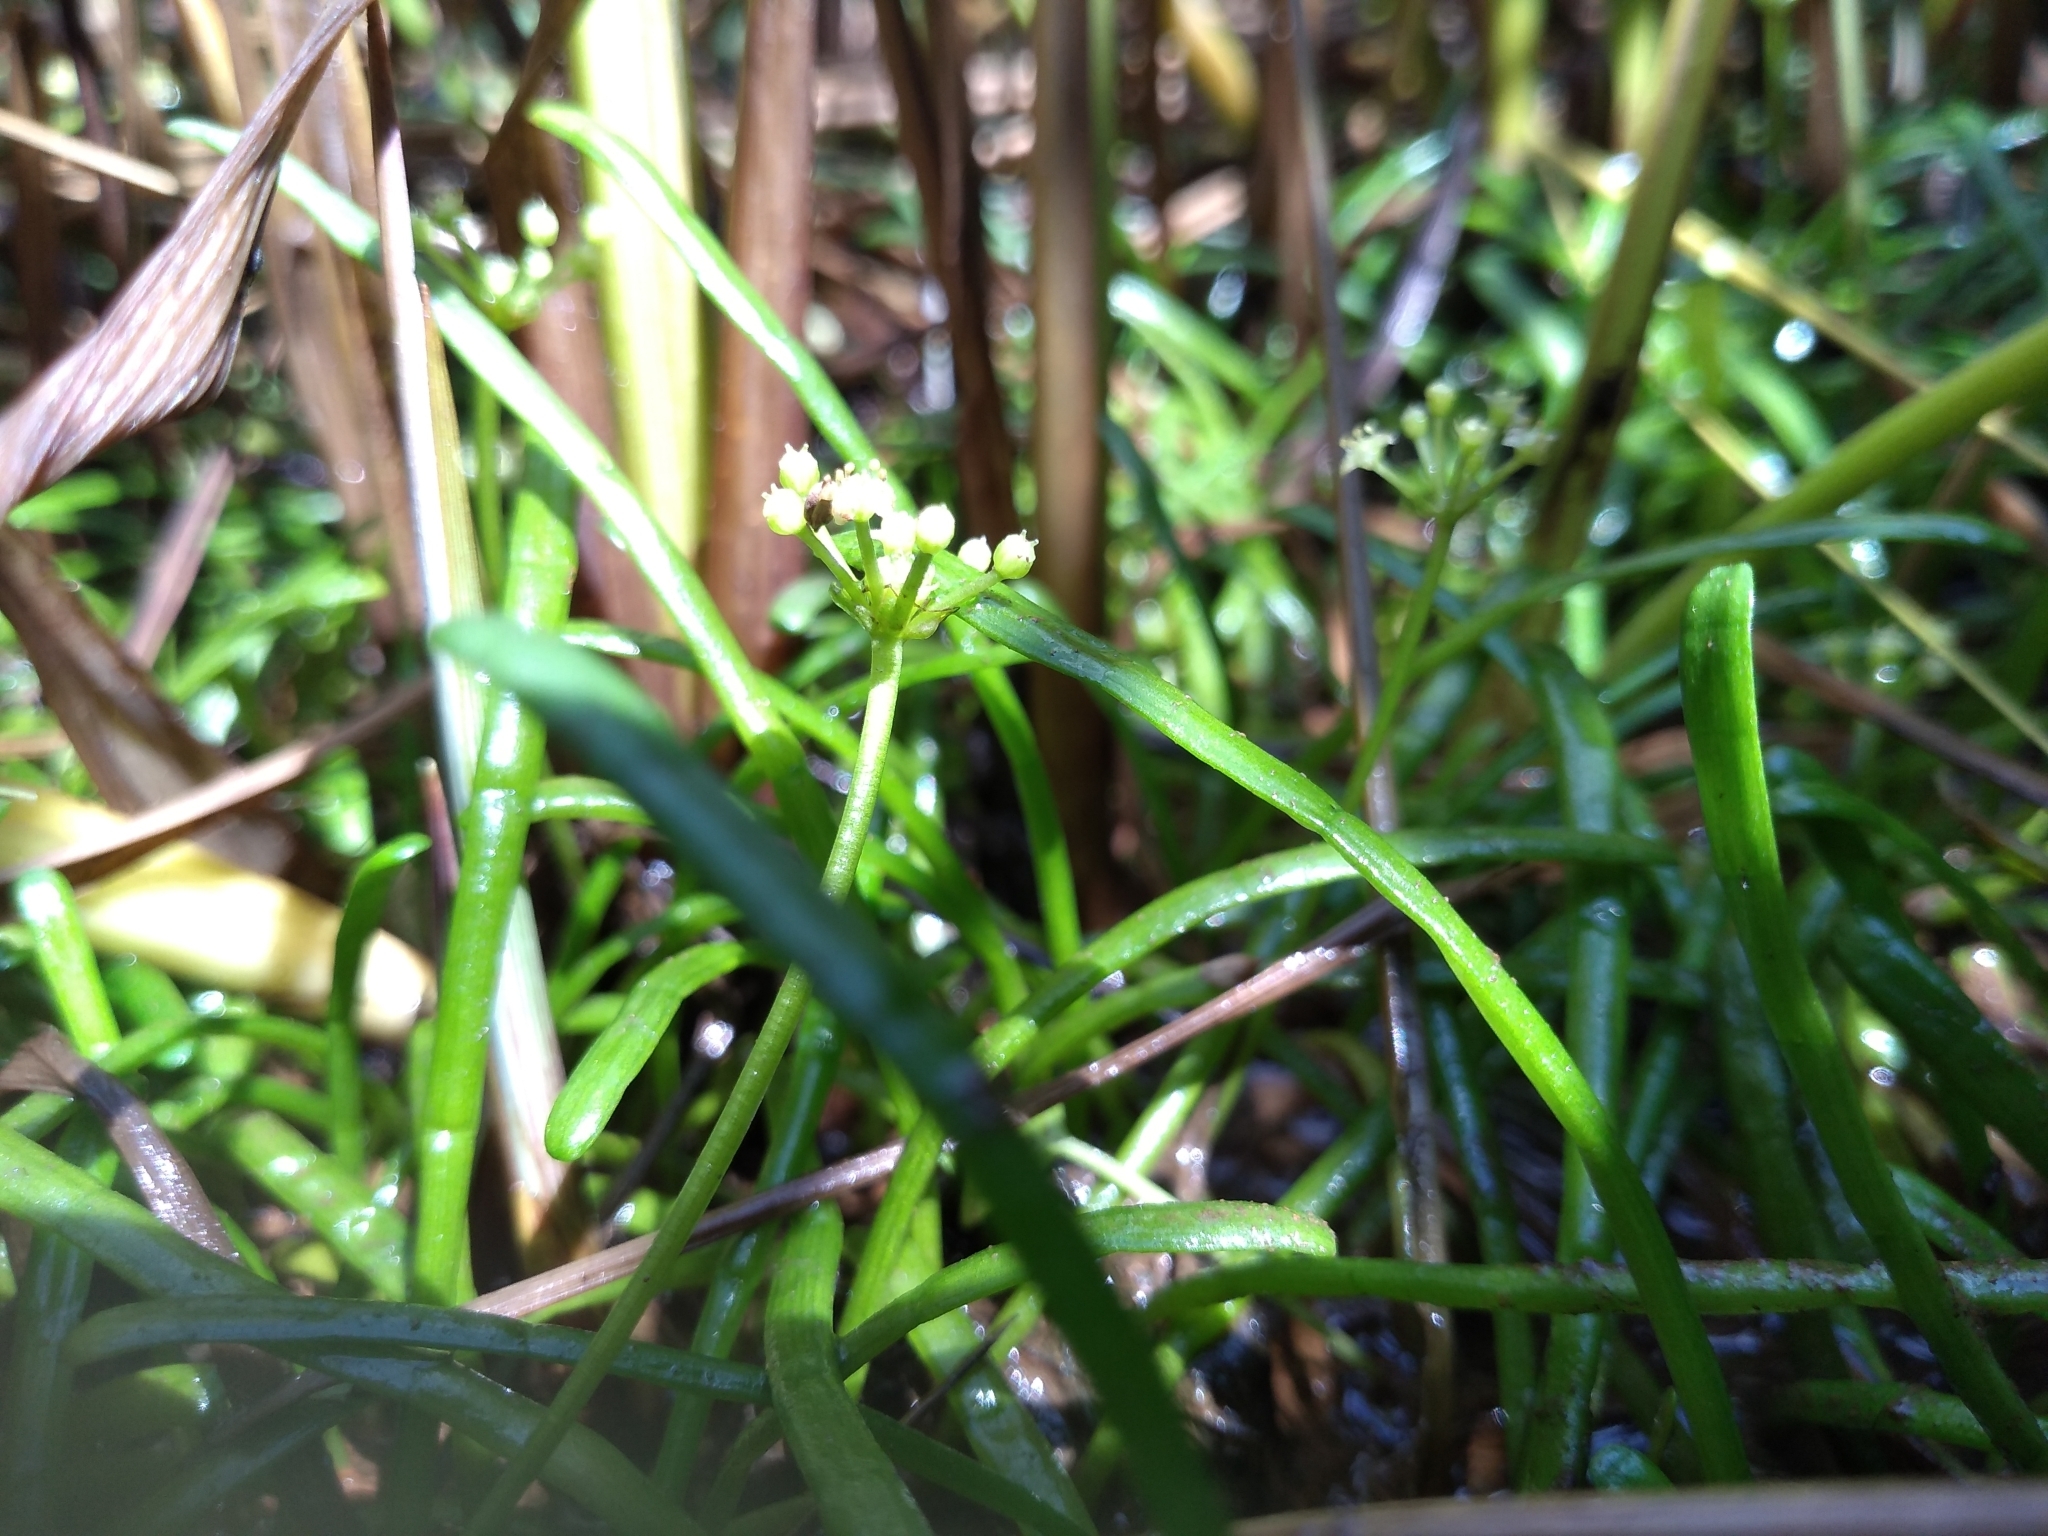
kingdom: Plantae
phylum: Tracheophyta
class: Magnoliopsida
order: Apiales
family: Apiaceae
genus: Lilaeopsis
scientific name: Lilaeopsis chinensis
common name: Eastern grasswort
